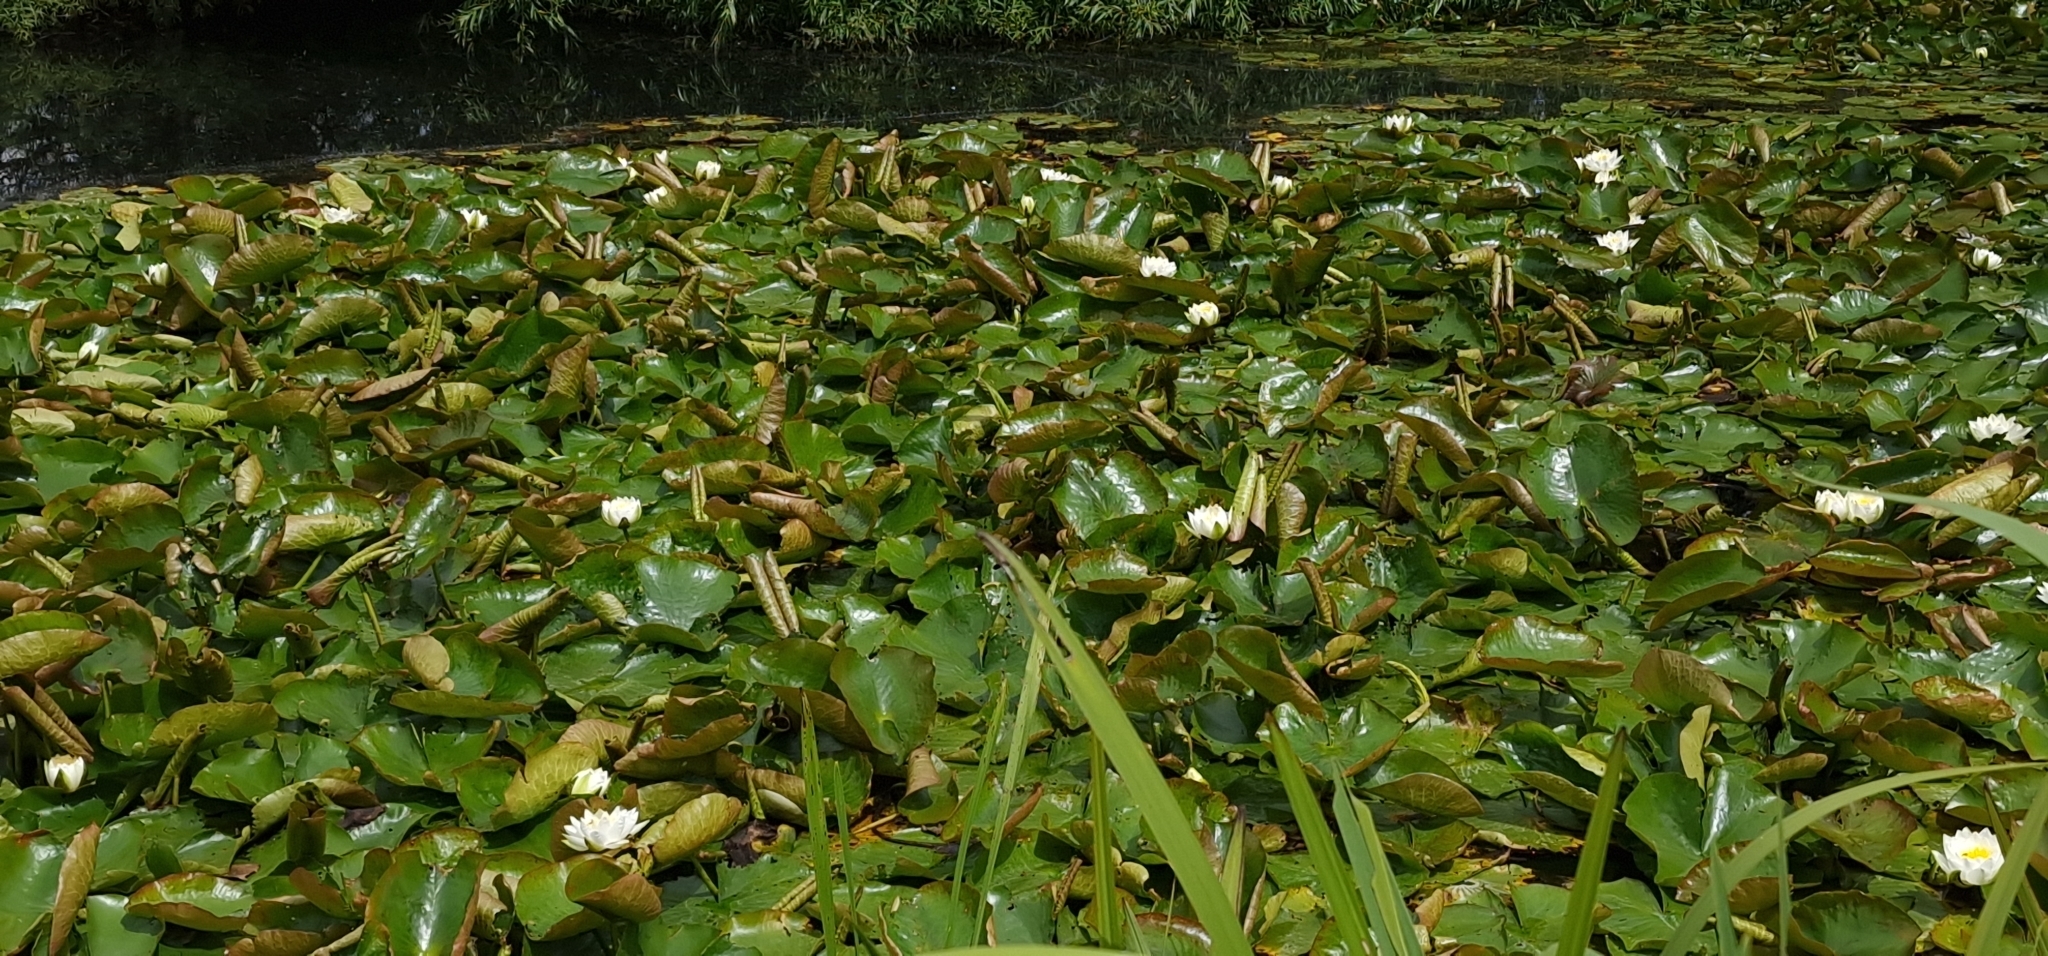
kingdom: Plantae
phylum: Tracheophyta
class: Magnoliopsida
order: Nymphaeales
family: Nymphaeaceae
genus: Nymphaea
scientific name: Nymphaea alba
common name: White water-lily
